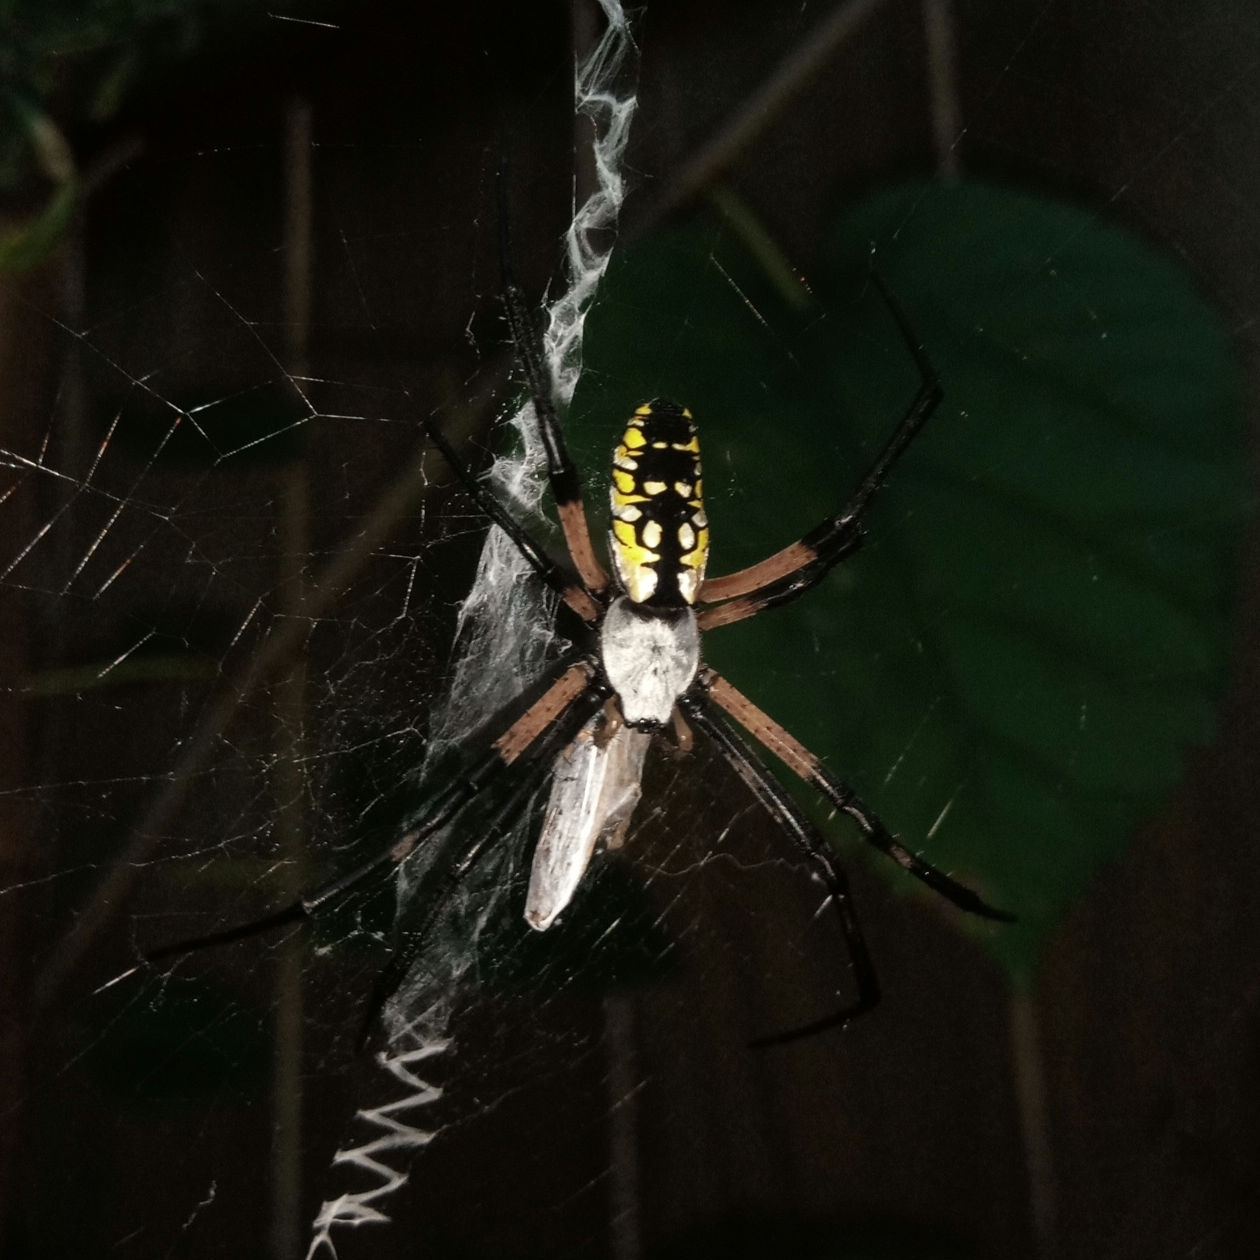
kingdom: Animalia
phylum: Arthropoda
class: Arachnida
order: Araneae
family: Araneidae
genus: Argiope
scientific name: Argiope aurantia
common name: Orb weavers
